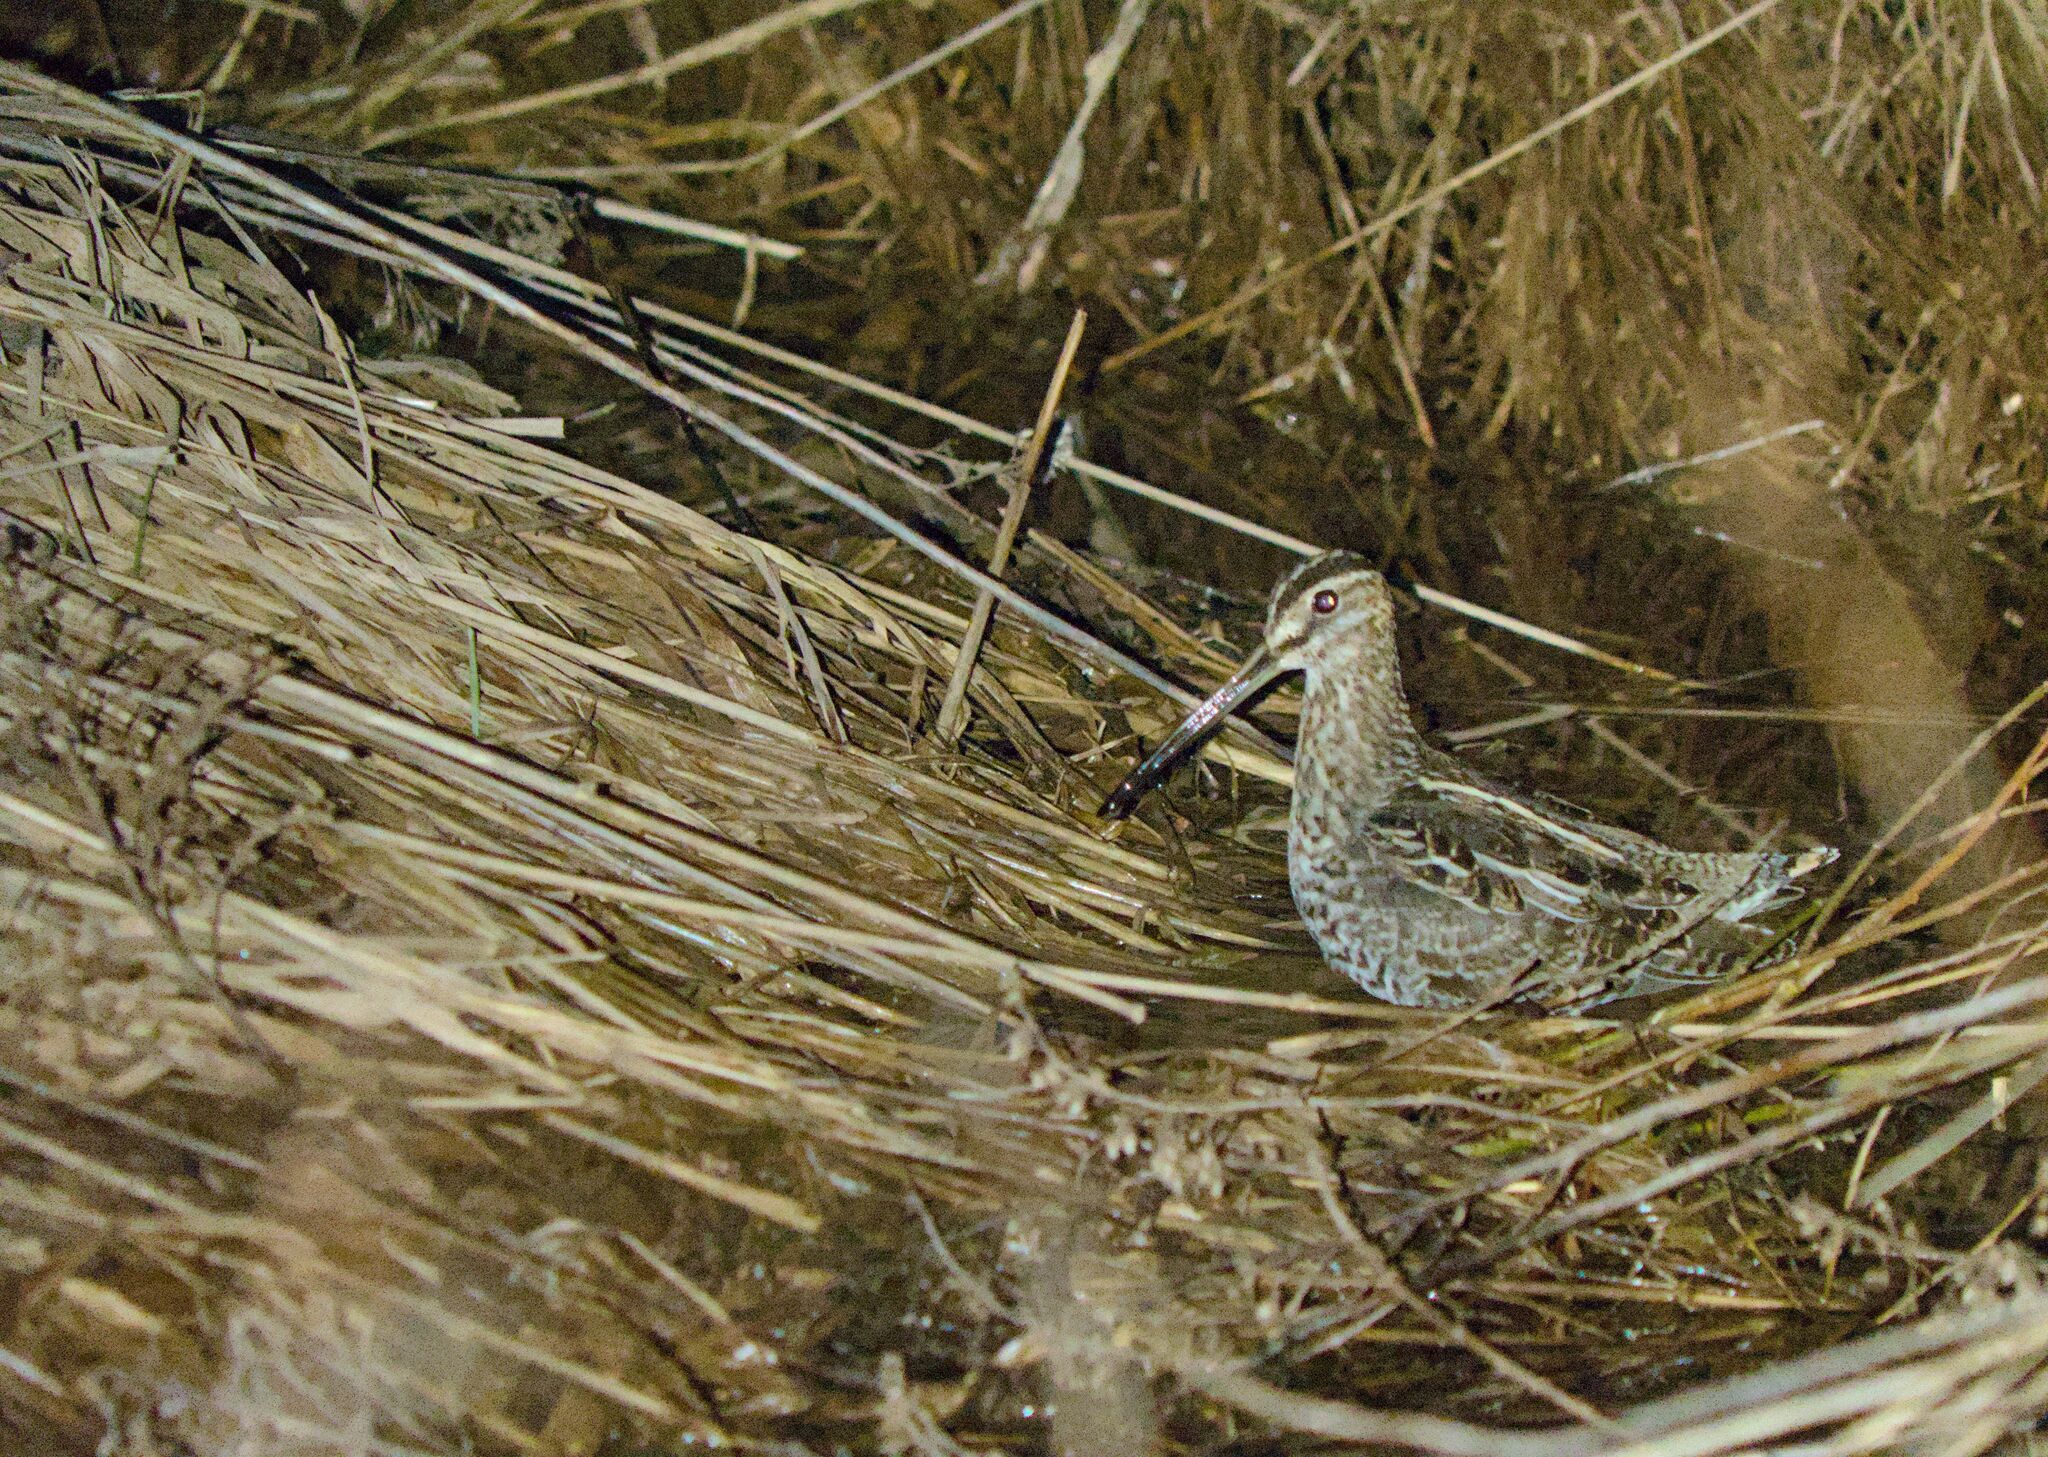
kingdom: Animalia
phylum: Chordata
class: Aves
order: Charadriiformes
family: Scolopacidae
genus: Gallinago
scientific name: Gallinago delicata
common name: Wilson's snipe
